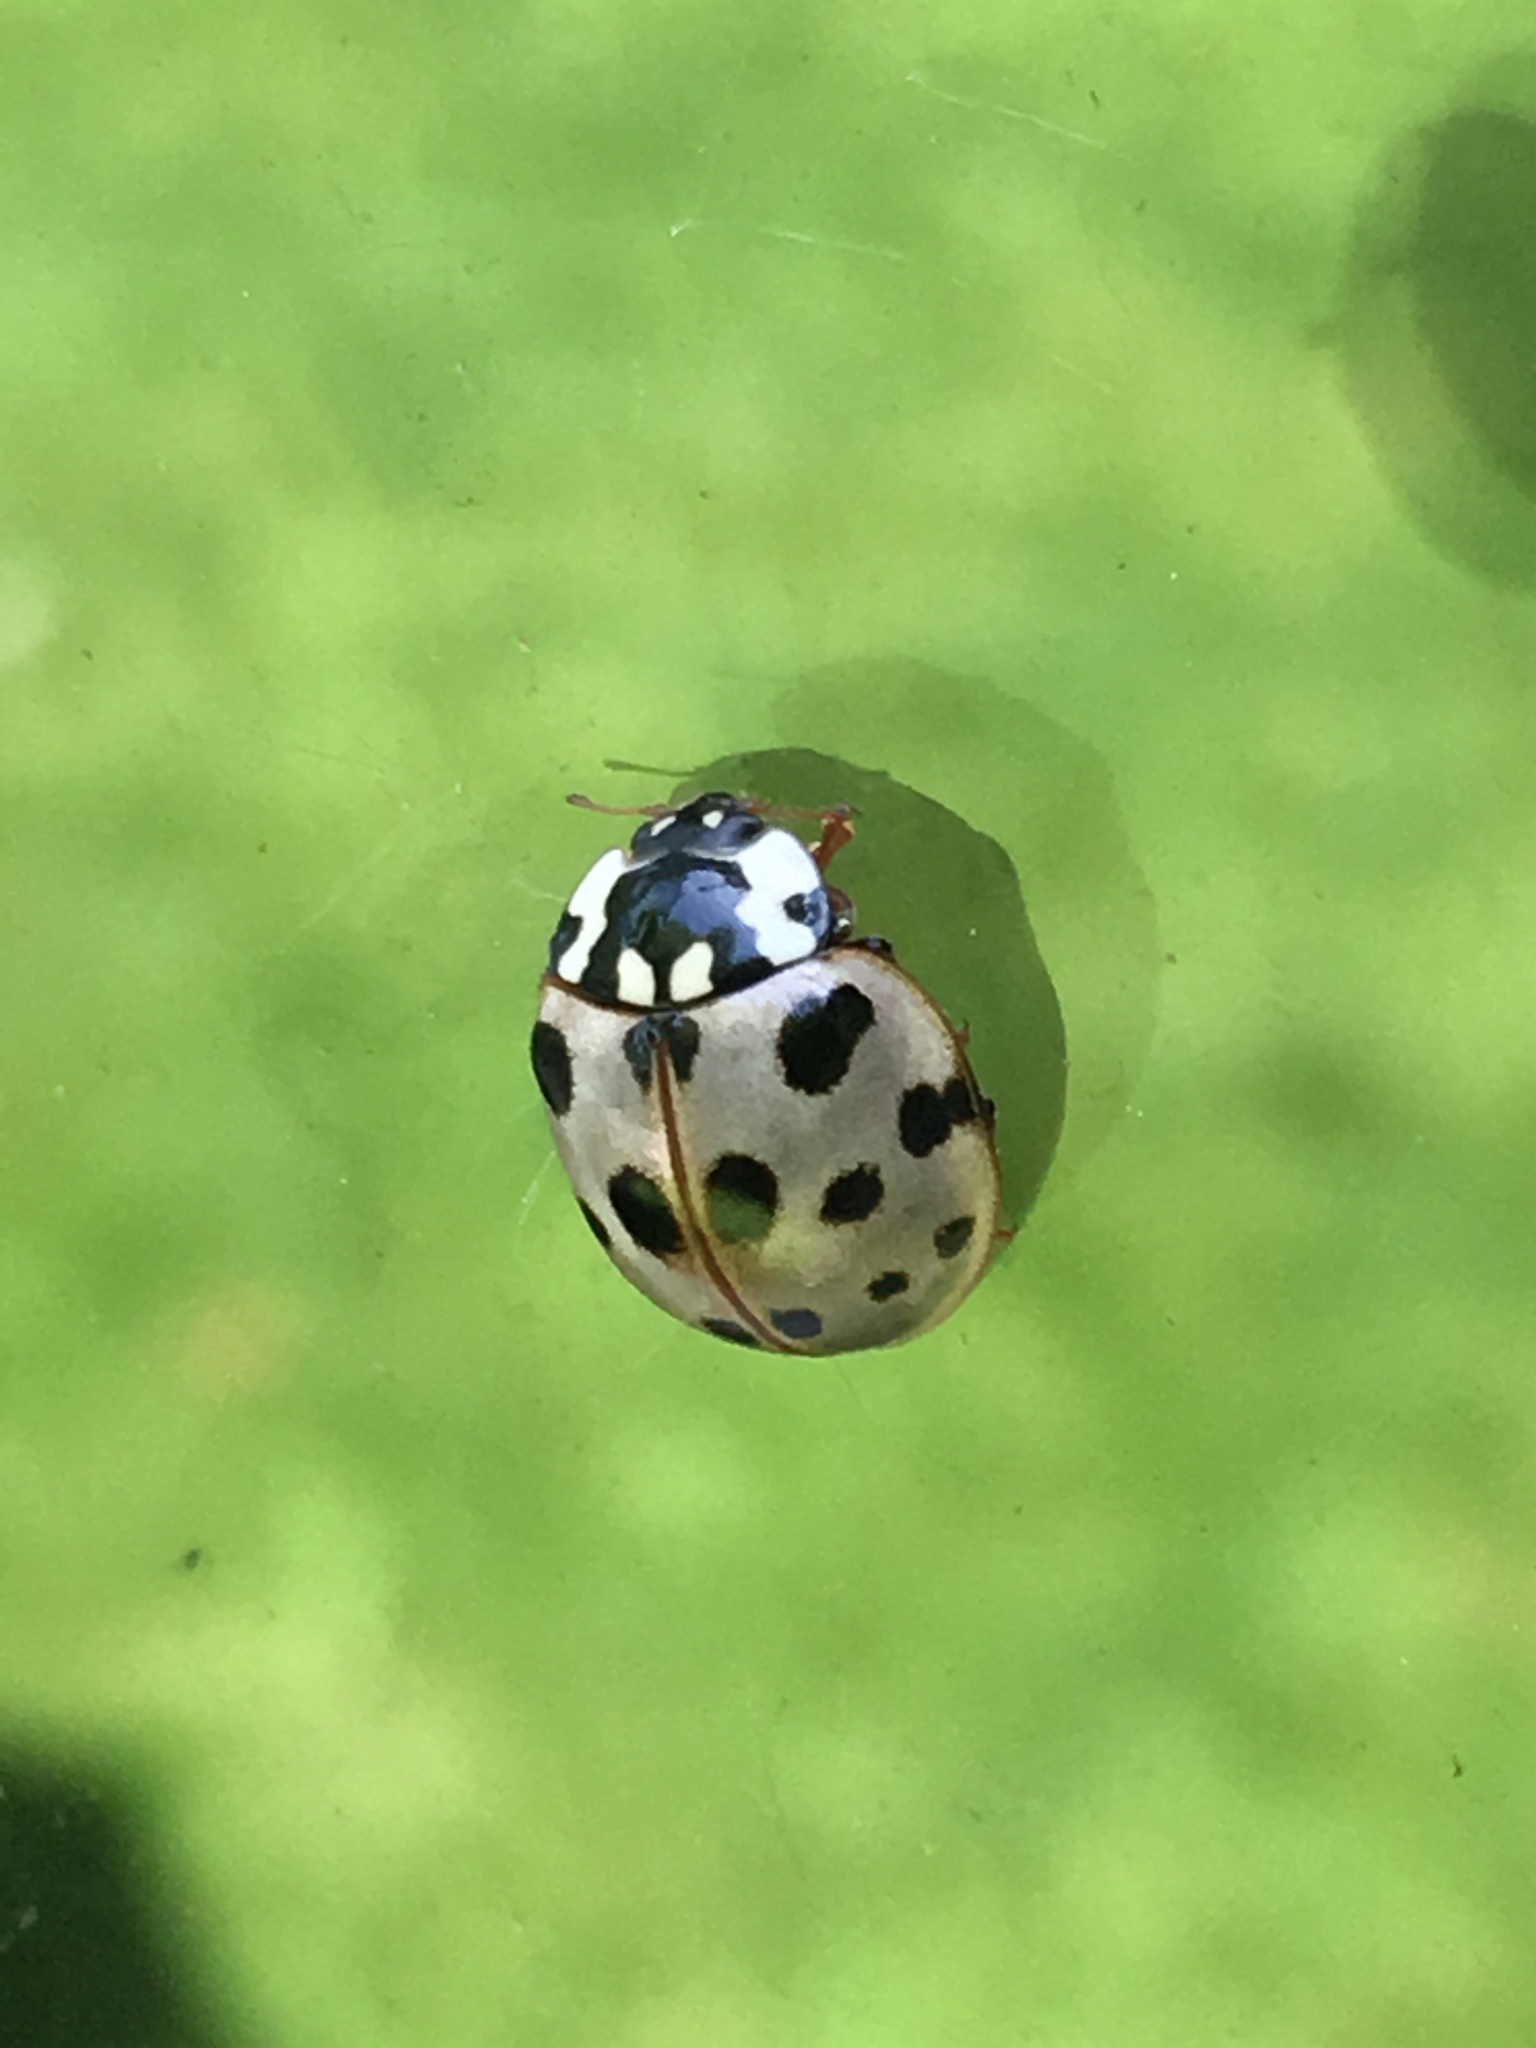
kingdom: Animalia
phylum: Arthropoda
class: Insecta
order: Coleoptera
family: Coccinellidae
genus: Anatis
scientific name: Anatis labiculata
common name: Fifteen-spotted lady beetle
